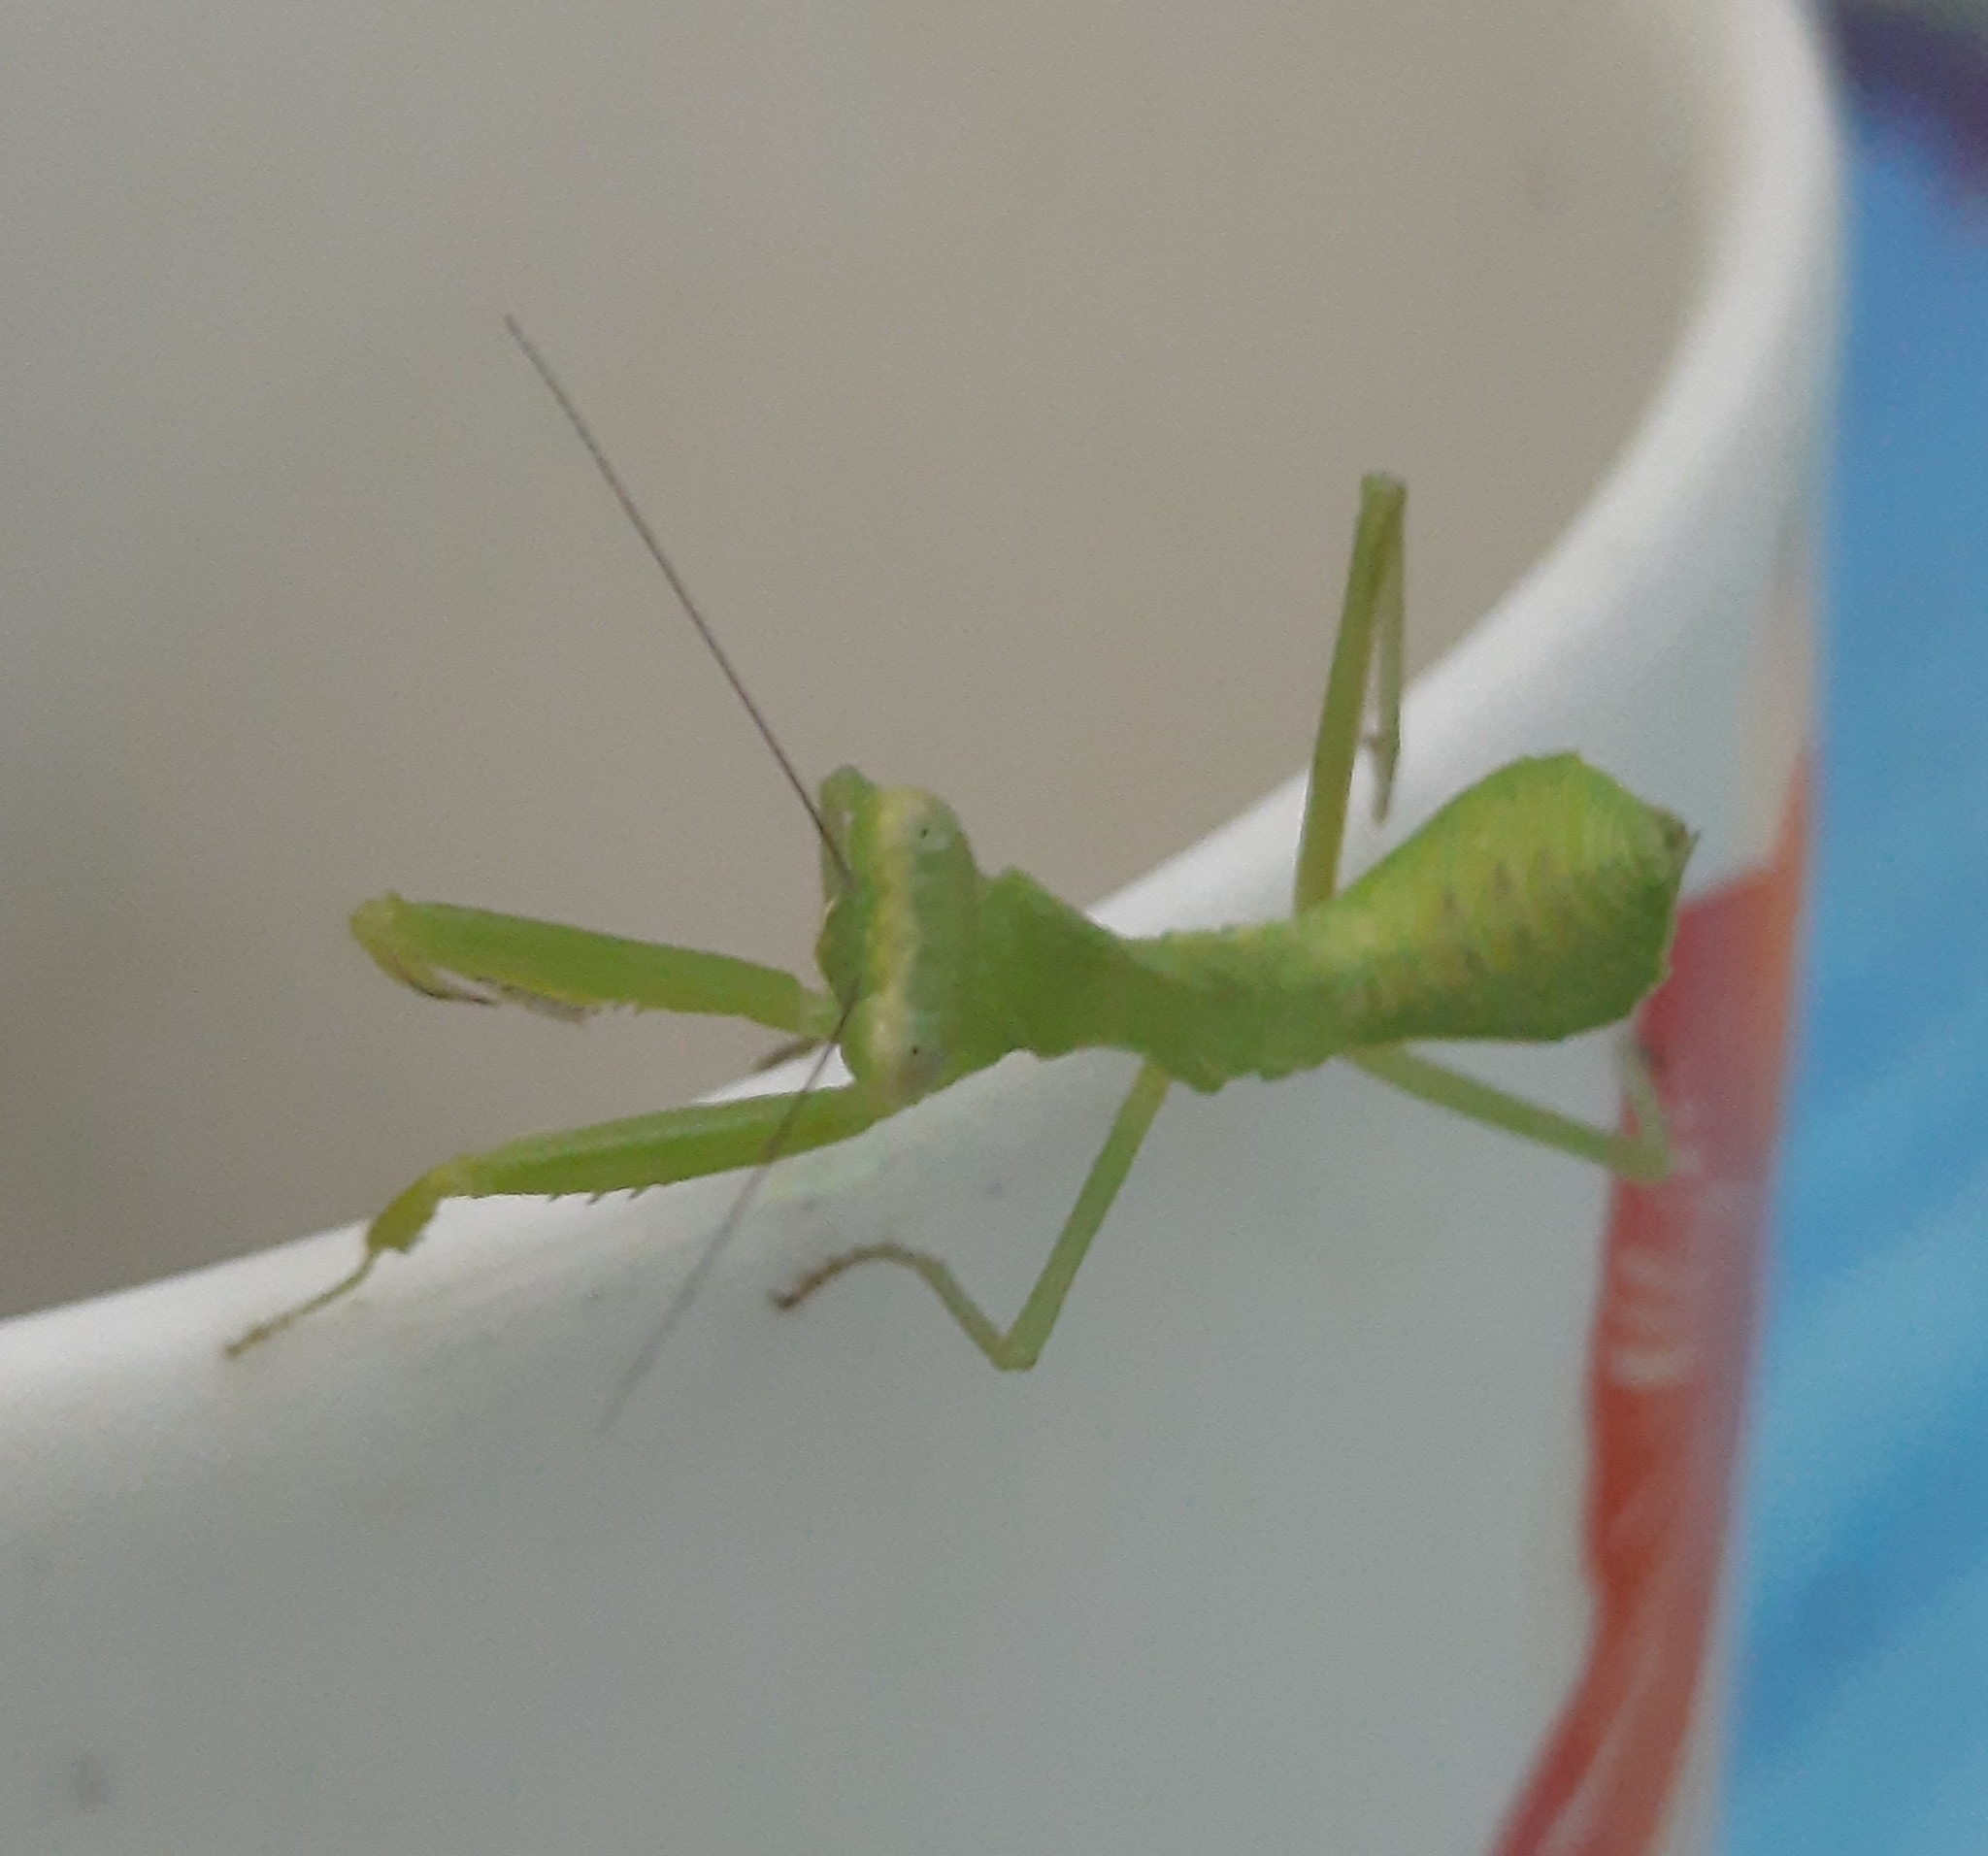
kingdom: Animalia
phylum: Arthropoda
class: Insecta
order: Mantodea
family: Mantidae
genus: Hierodula
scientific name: Hierodula transcaucasica
